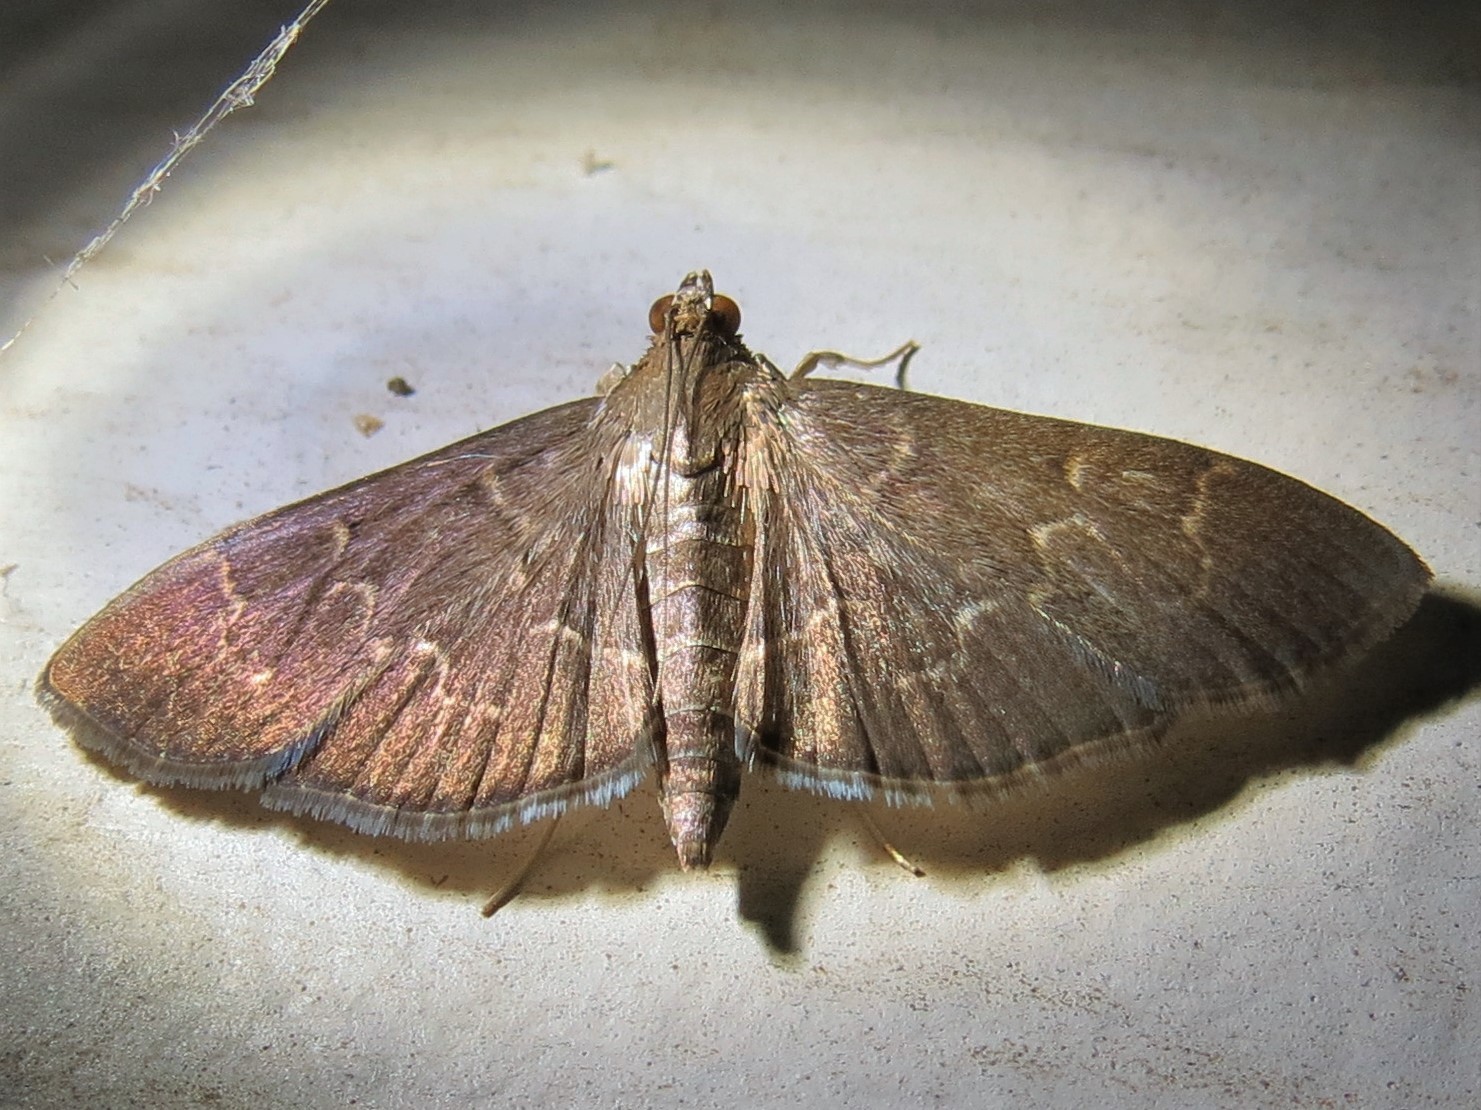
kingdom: Animalia
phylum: Arthropoda
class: Insecta
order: Lepidoptera
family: Crambidae
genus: Pilocrocis
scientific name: Pilocrocis ramentalis
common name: Scraped pilocrocis
